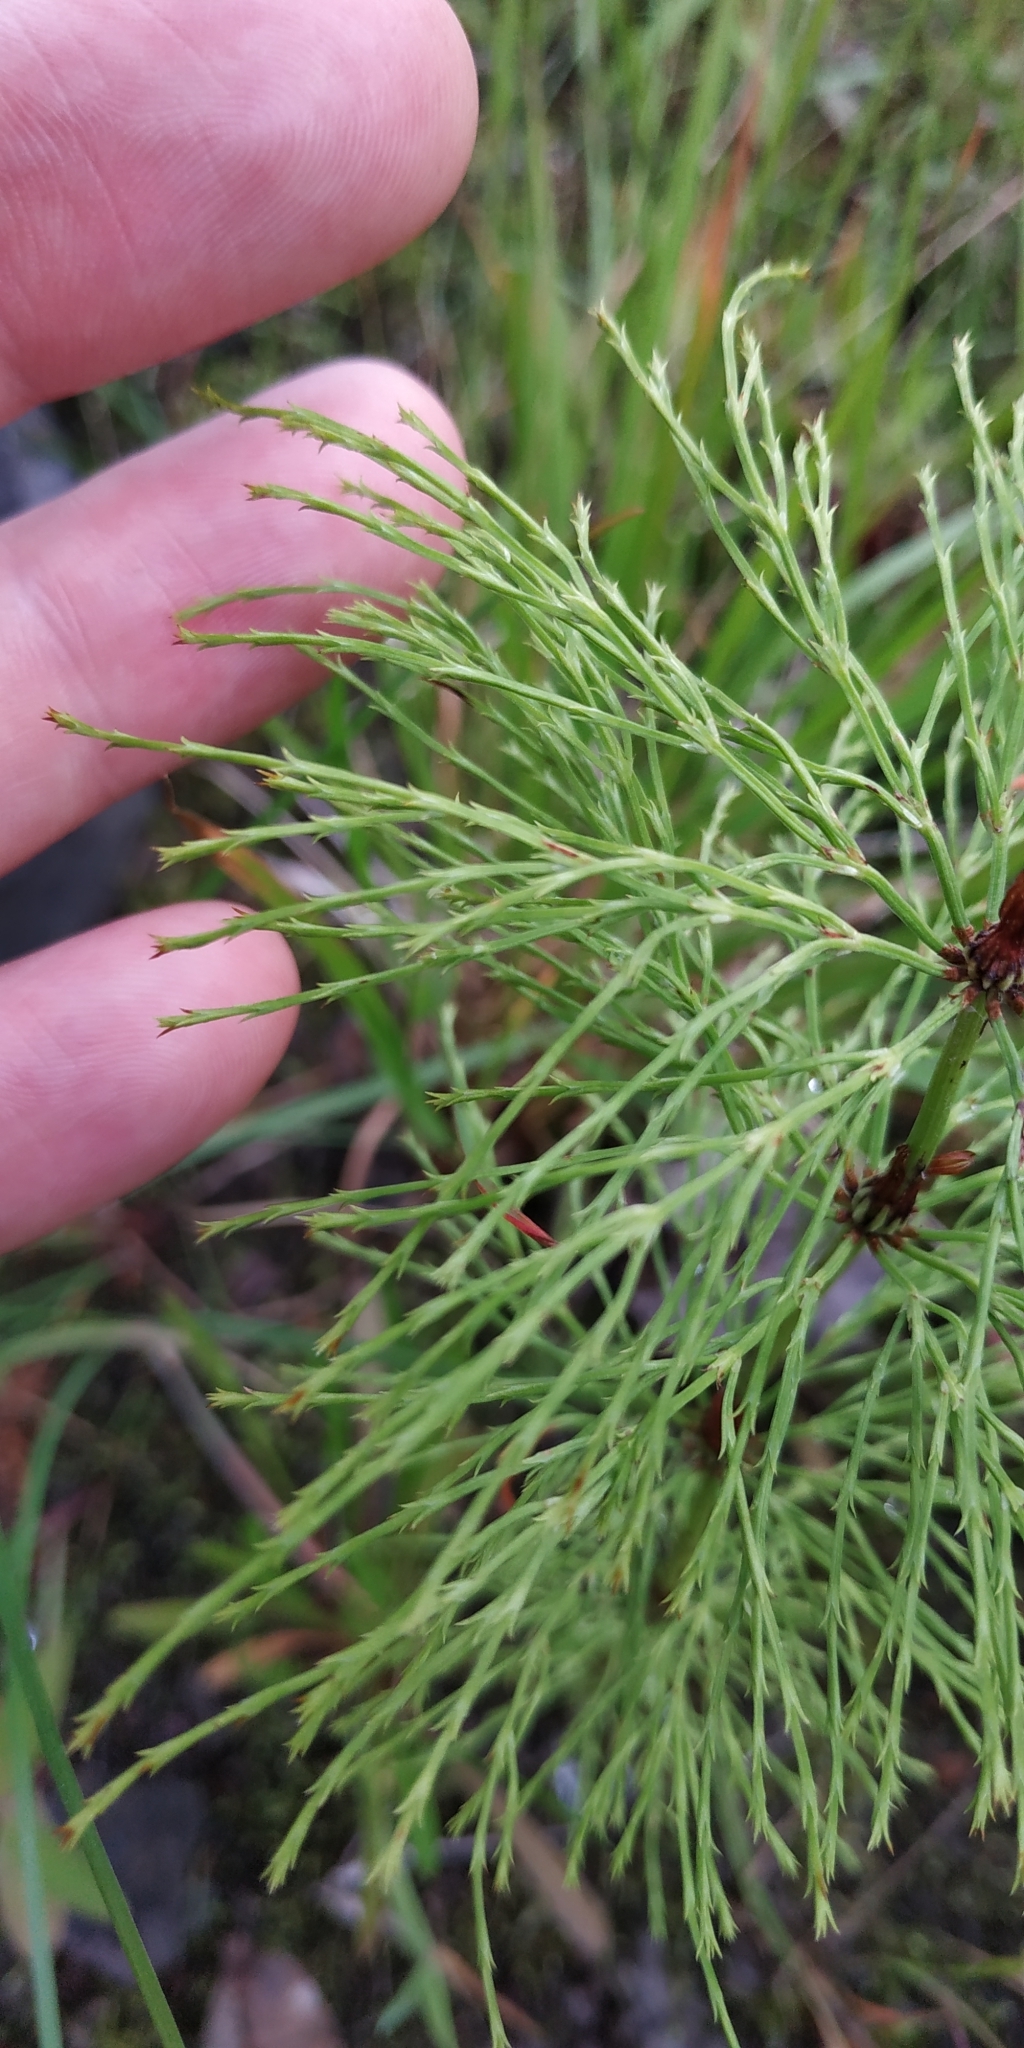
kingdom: Plantae
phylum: Tracheophyta
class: Polypodiopsida
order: Equisetales
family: Equisetaceae
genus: Equisetum
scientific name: Equisetum sylvaticum
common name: Wood horsetail
